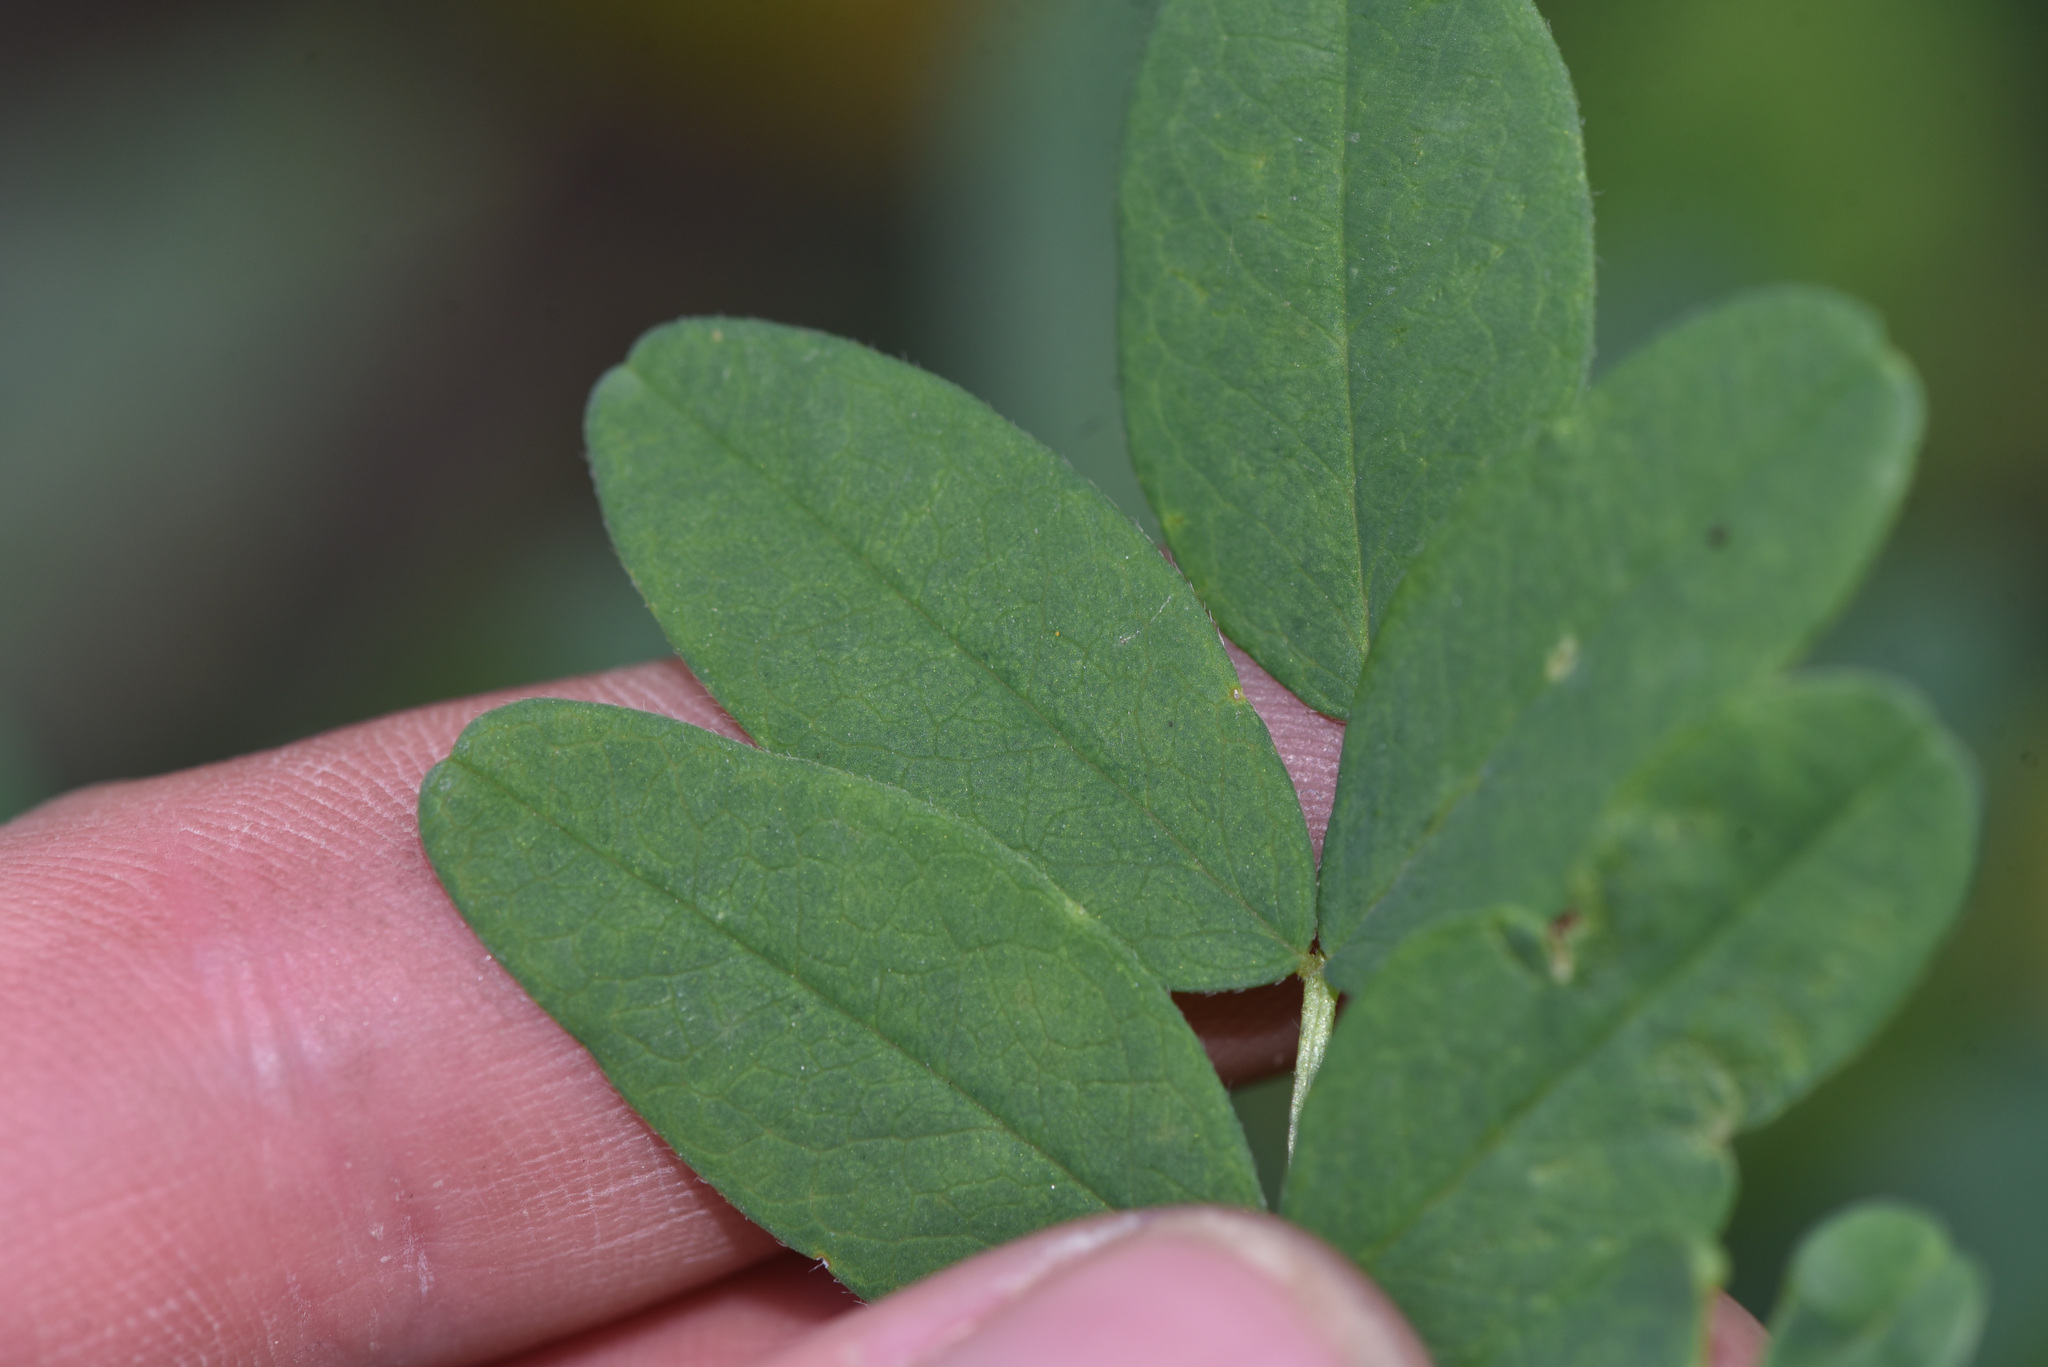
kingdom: Plantae
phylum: Tracheophyta
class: Magnoliopsida
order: Fabales
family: Fabaceae
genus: Astragalus
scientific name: Astragalus americanus
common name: American milk-vetch
